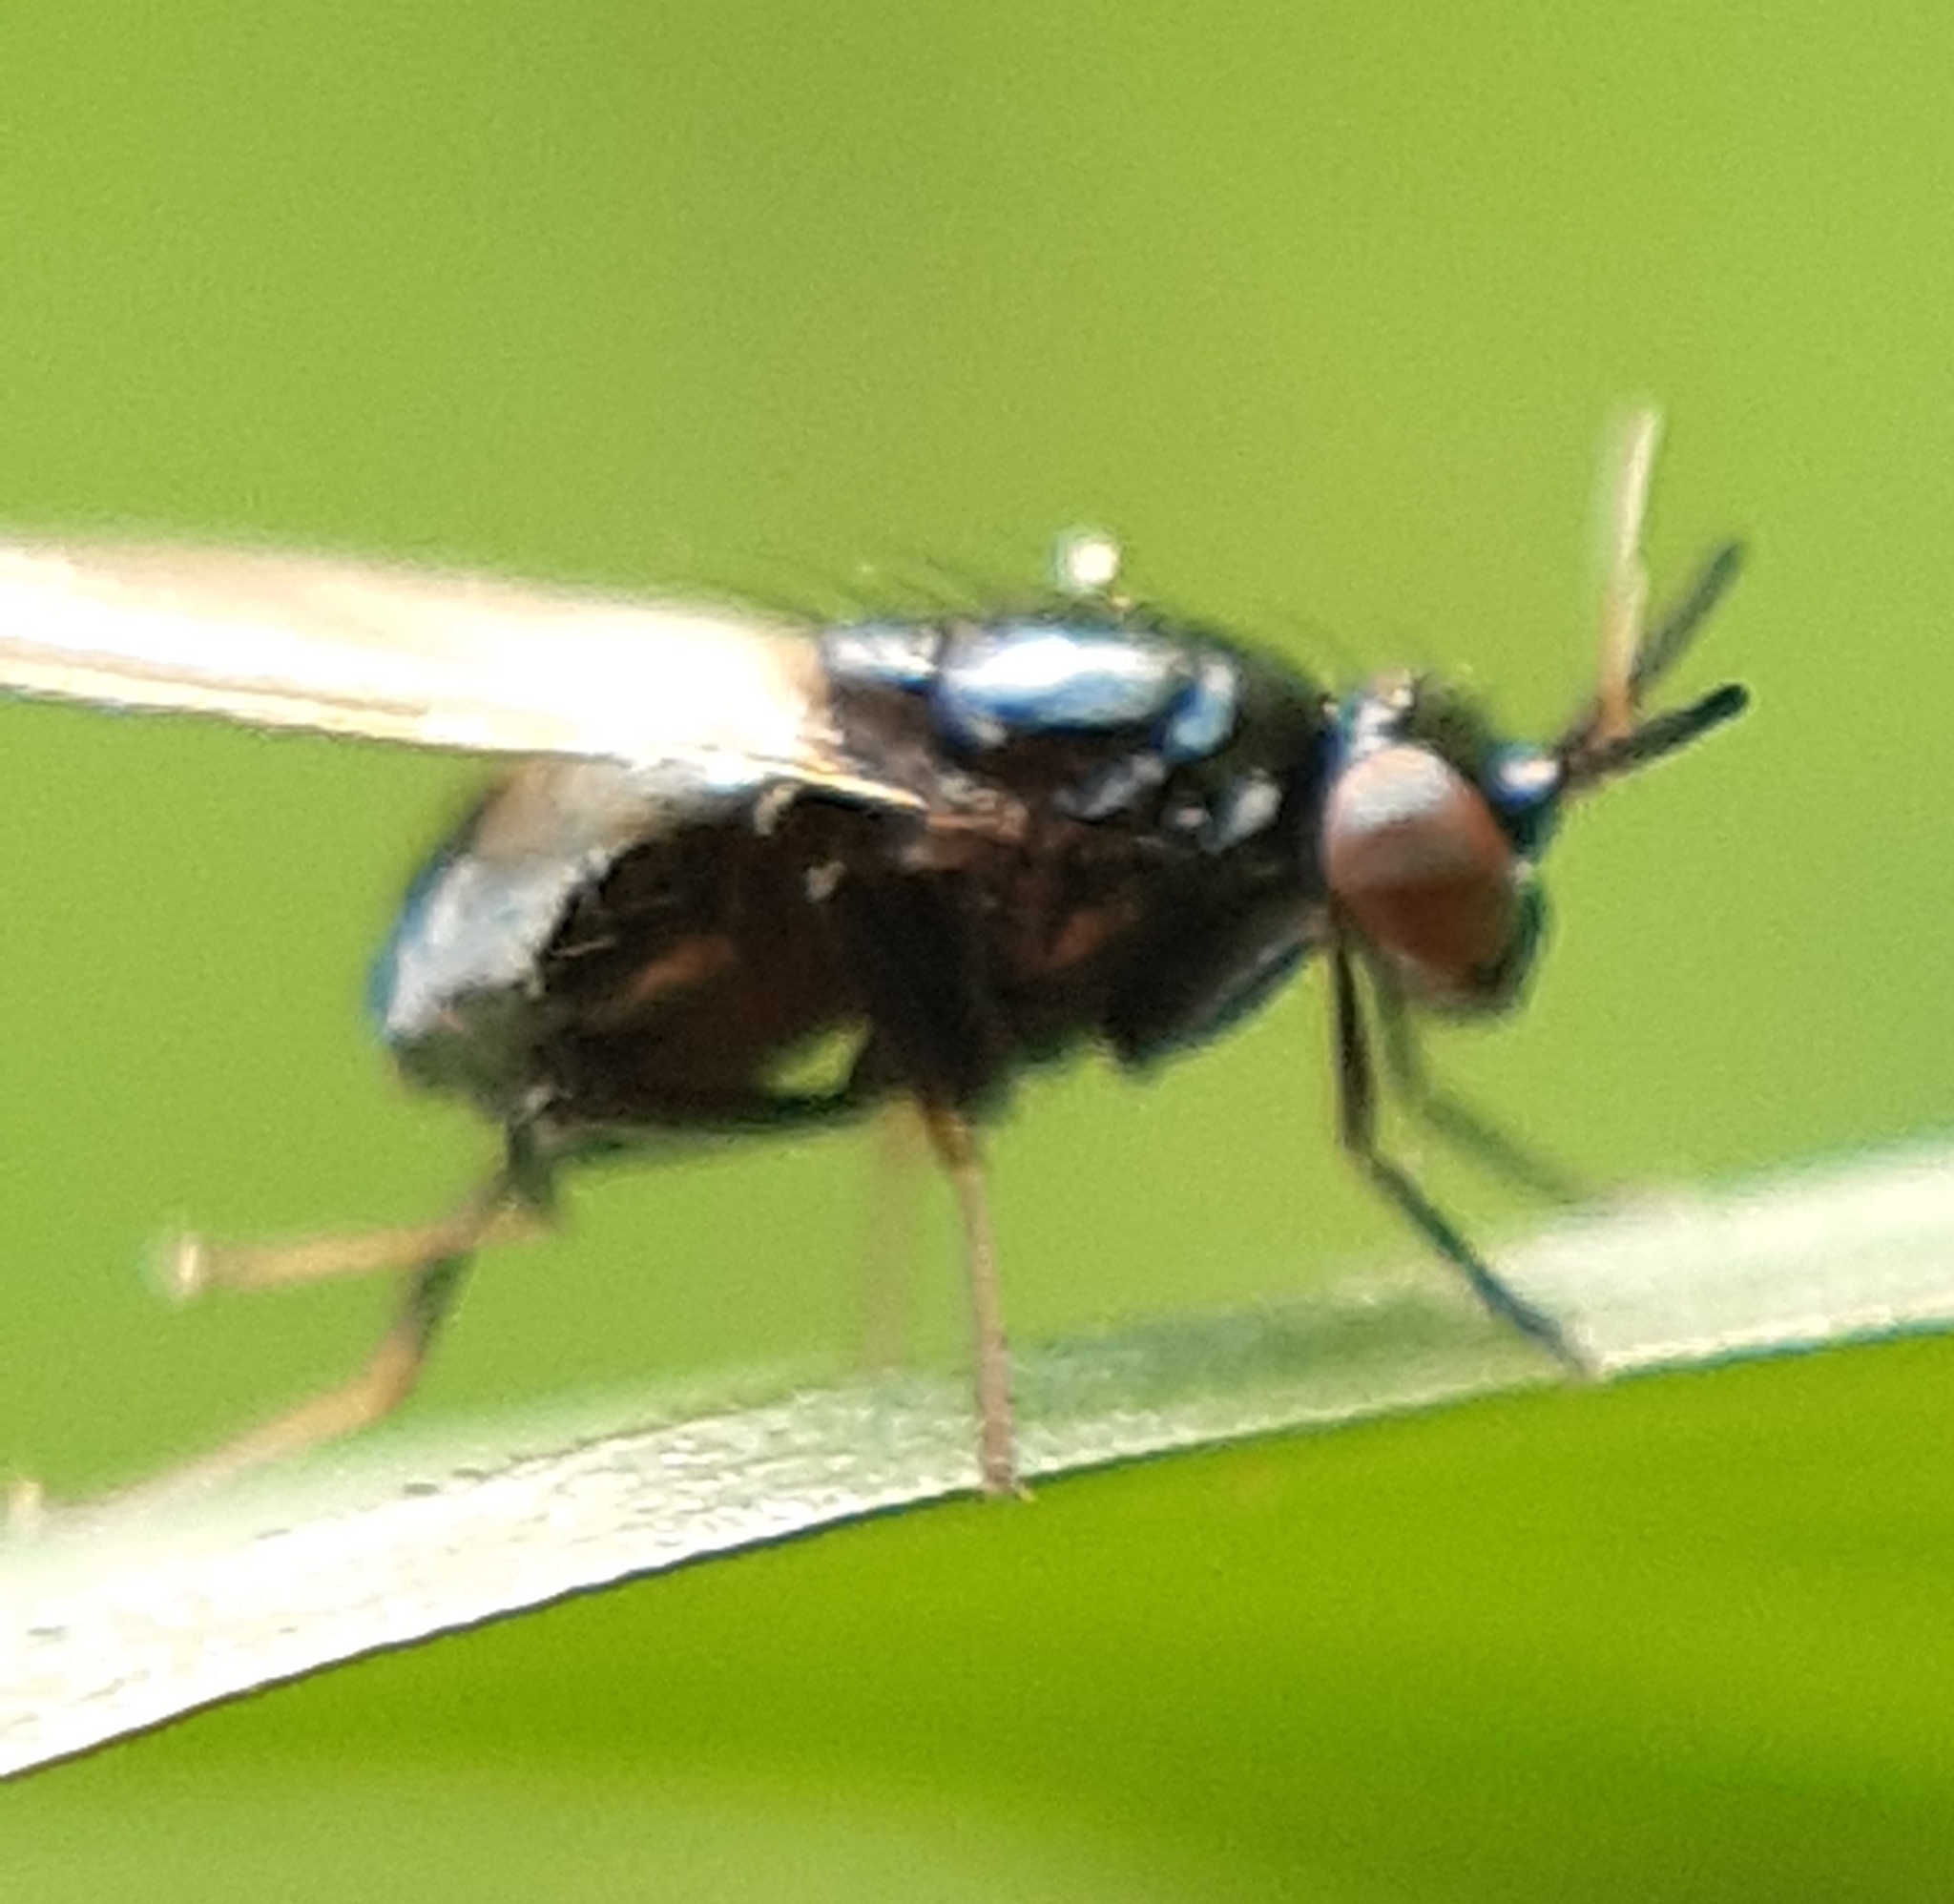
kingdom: Animalia
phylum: Arthropoda
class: Insecta
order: Diptera
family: Lauxaniidae
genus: Lauxania
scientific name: Lauxania minor
